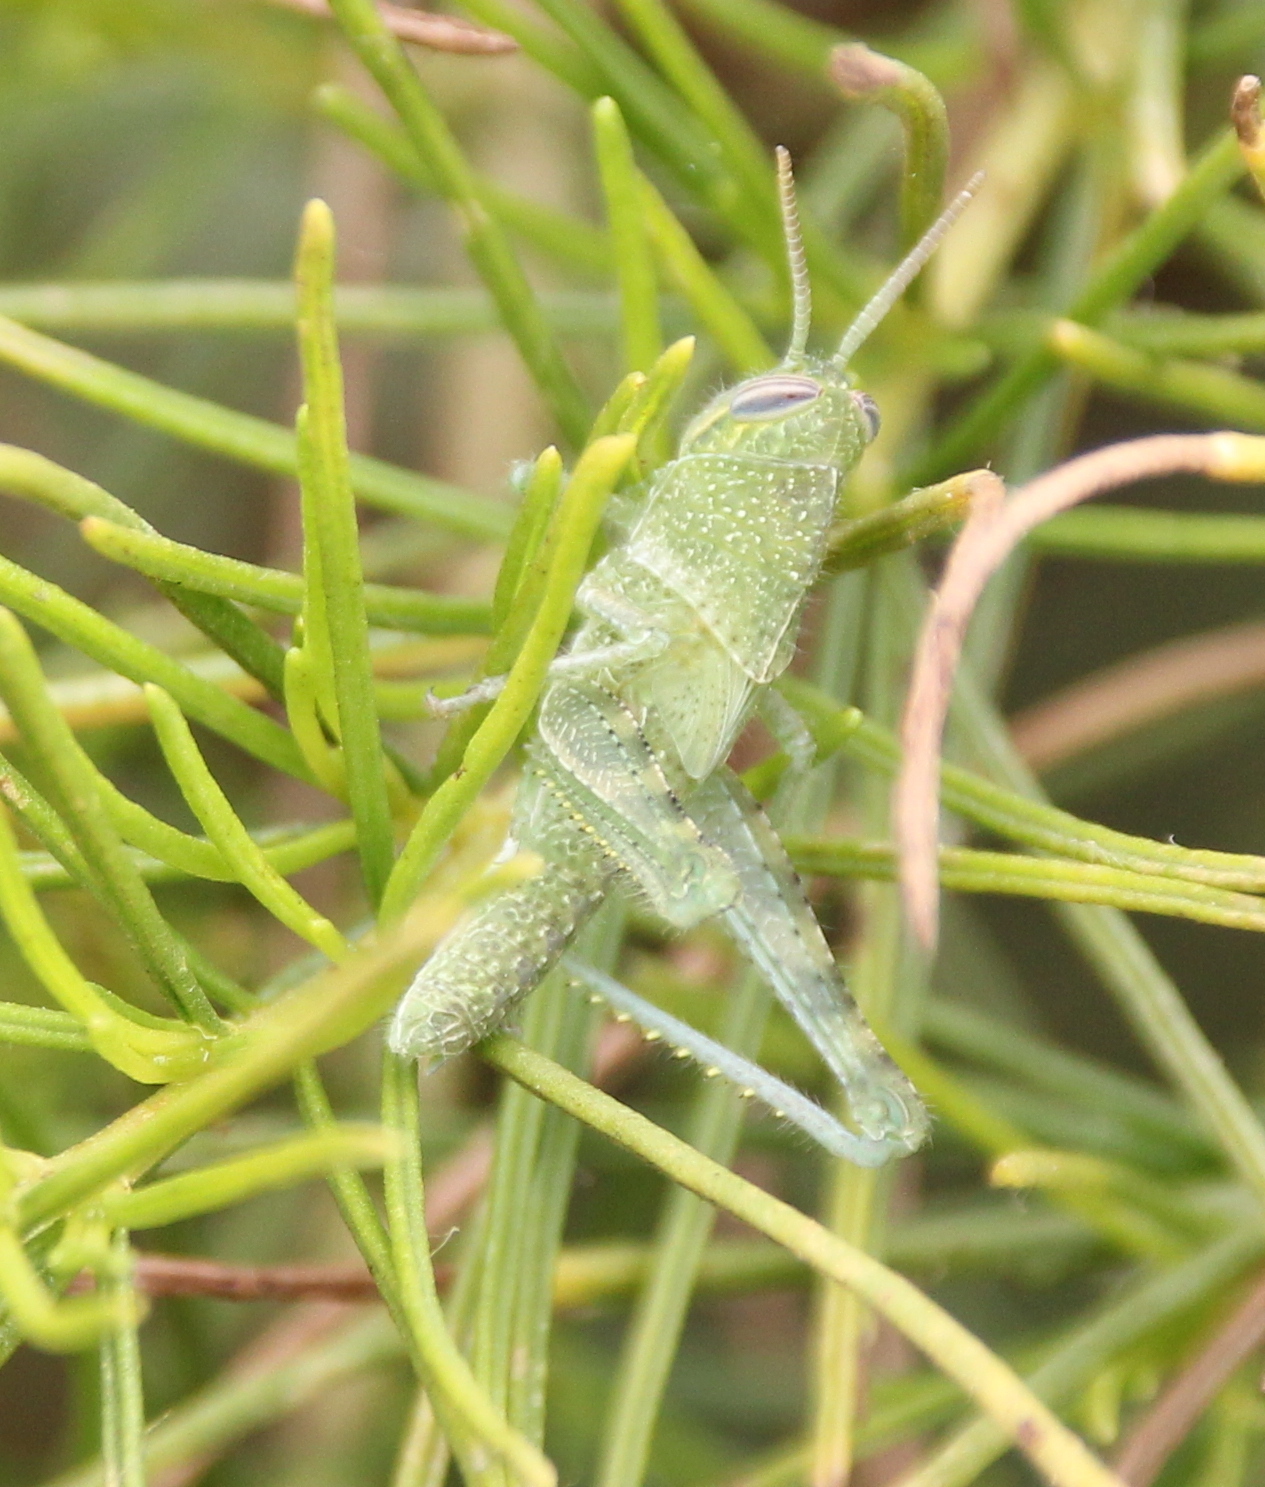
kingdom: Animalia
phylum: Arthropoda
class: Insecta
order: Orthoptera
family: Acrididae
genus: Schistocerca
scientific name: Schistocerca nitens
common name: Vagrant grasshopper
